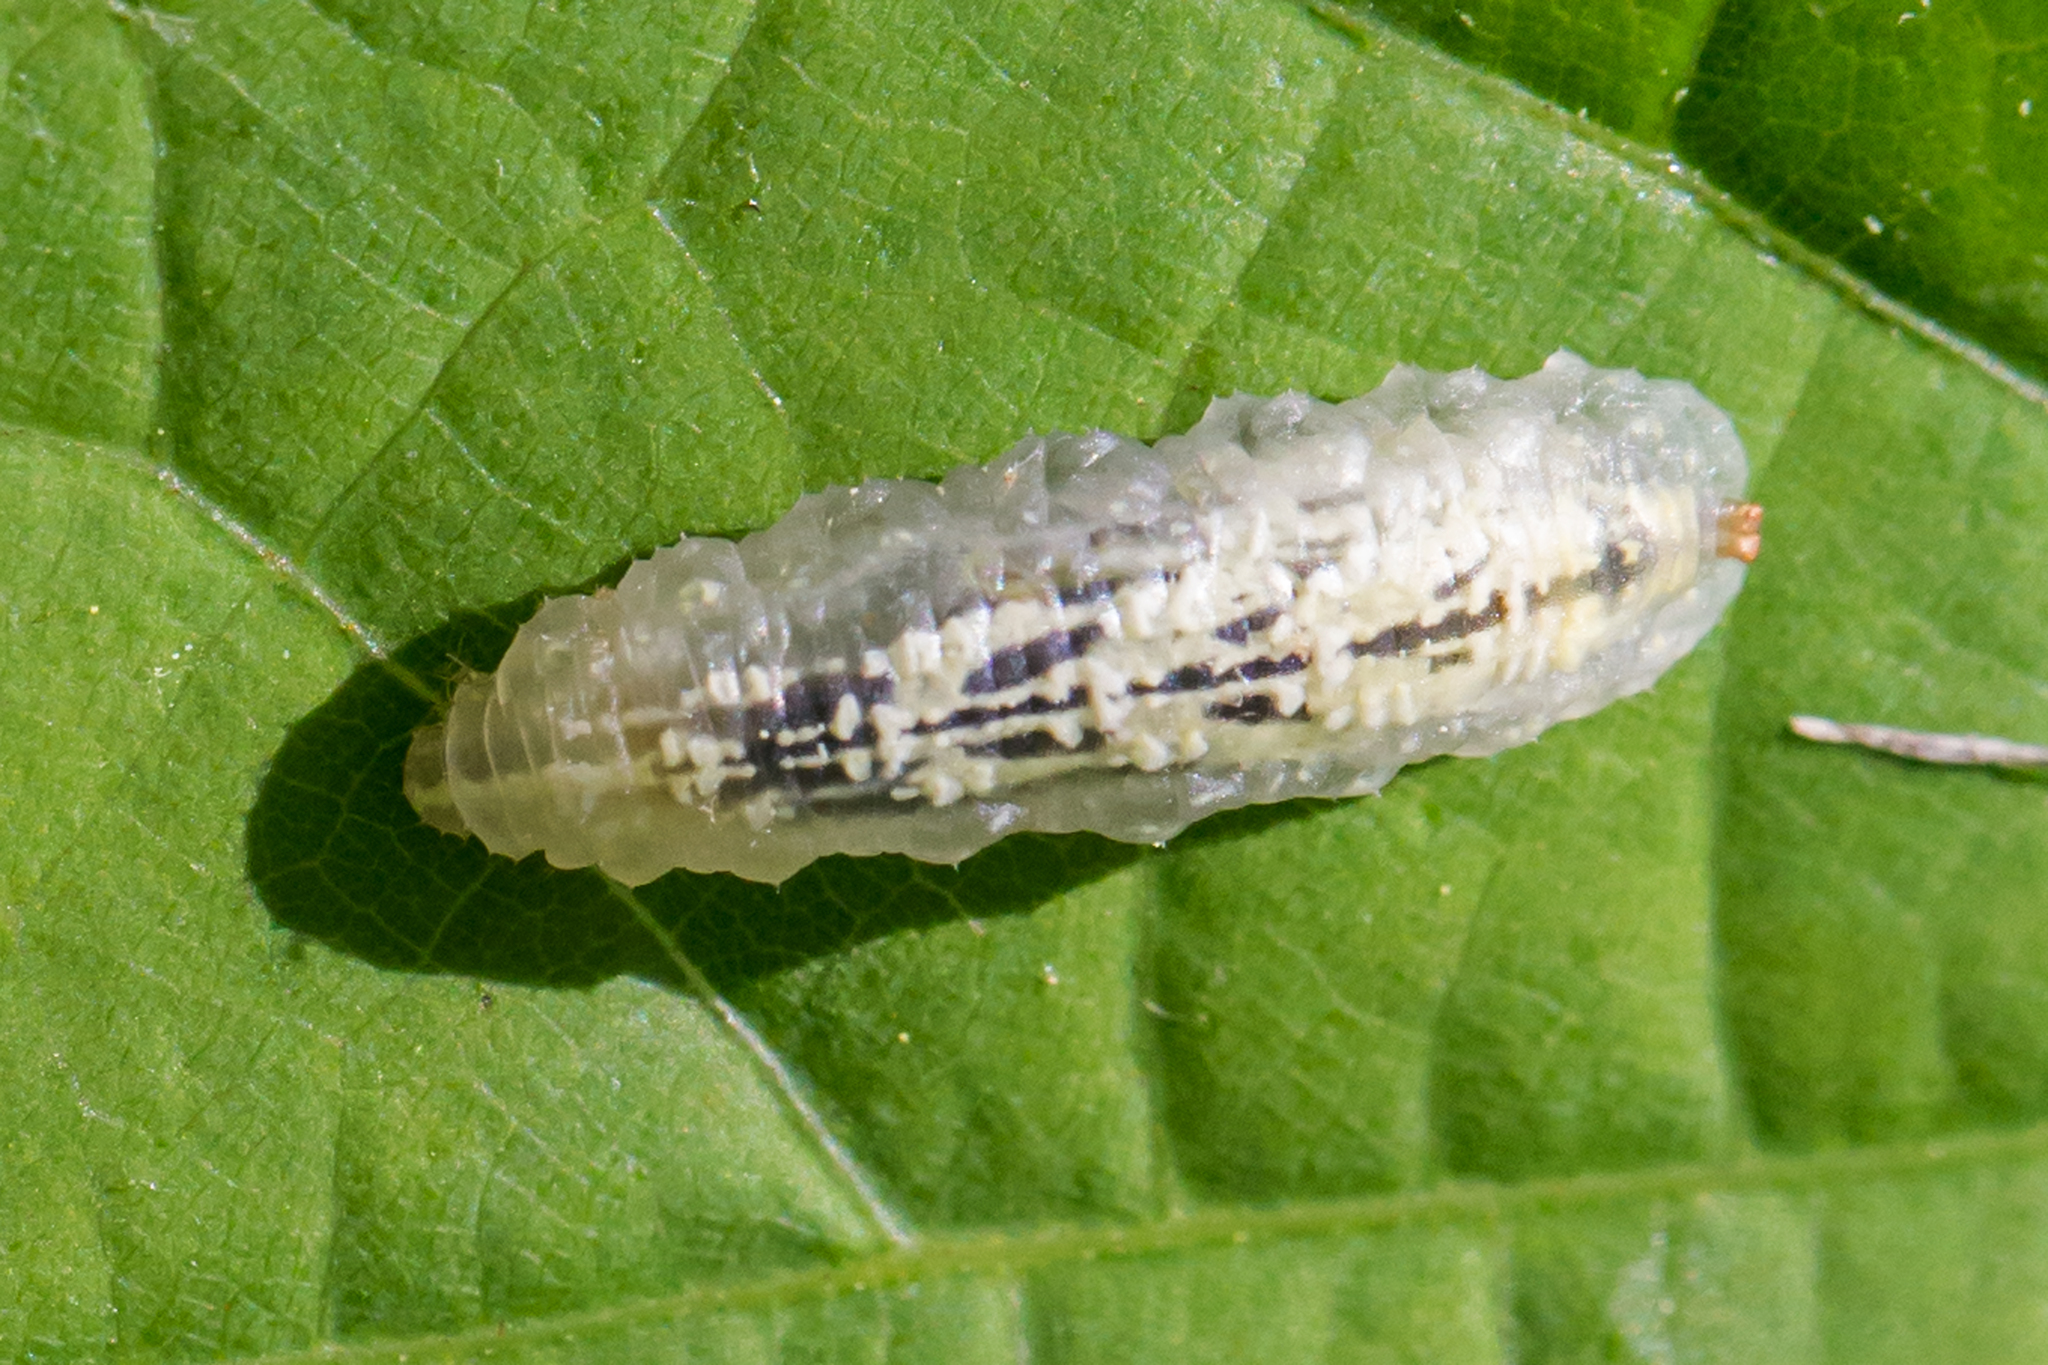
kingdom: Animalia
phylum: Arthropoda
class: Insecta
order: Diptera
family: Syrphidae
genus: Syrphus
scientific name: Syrphus
